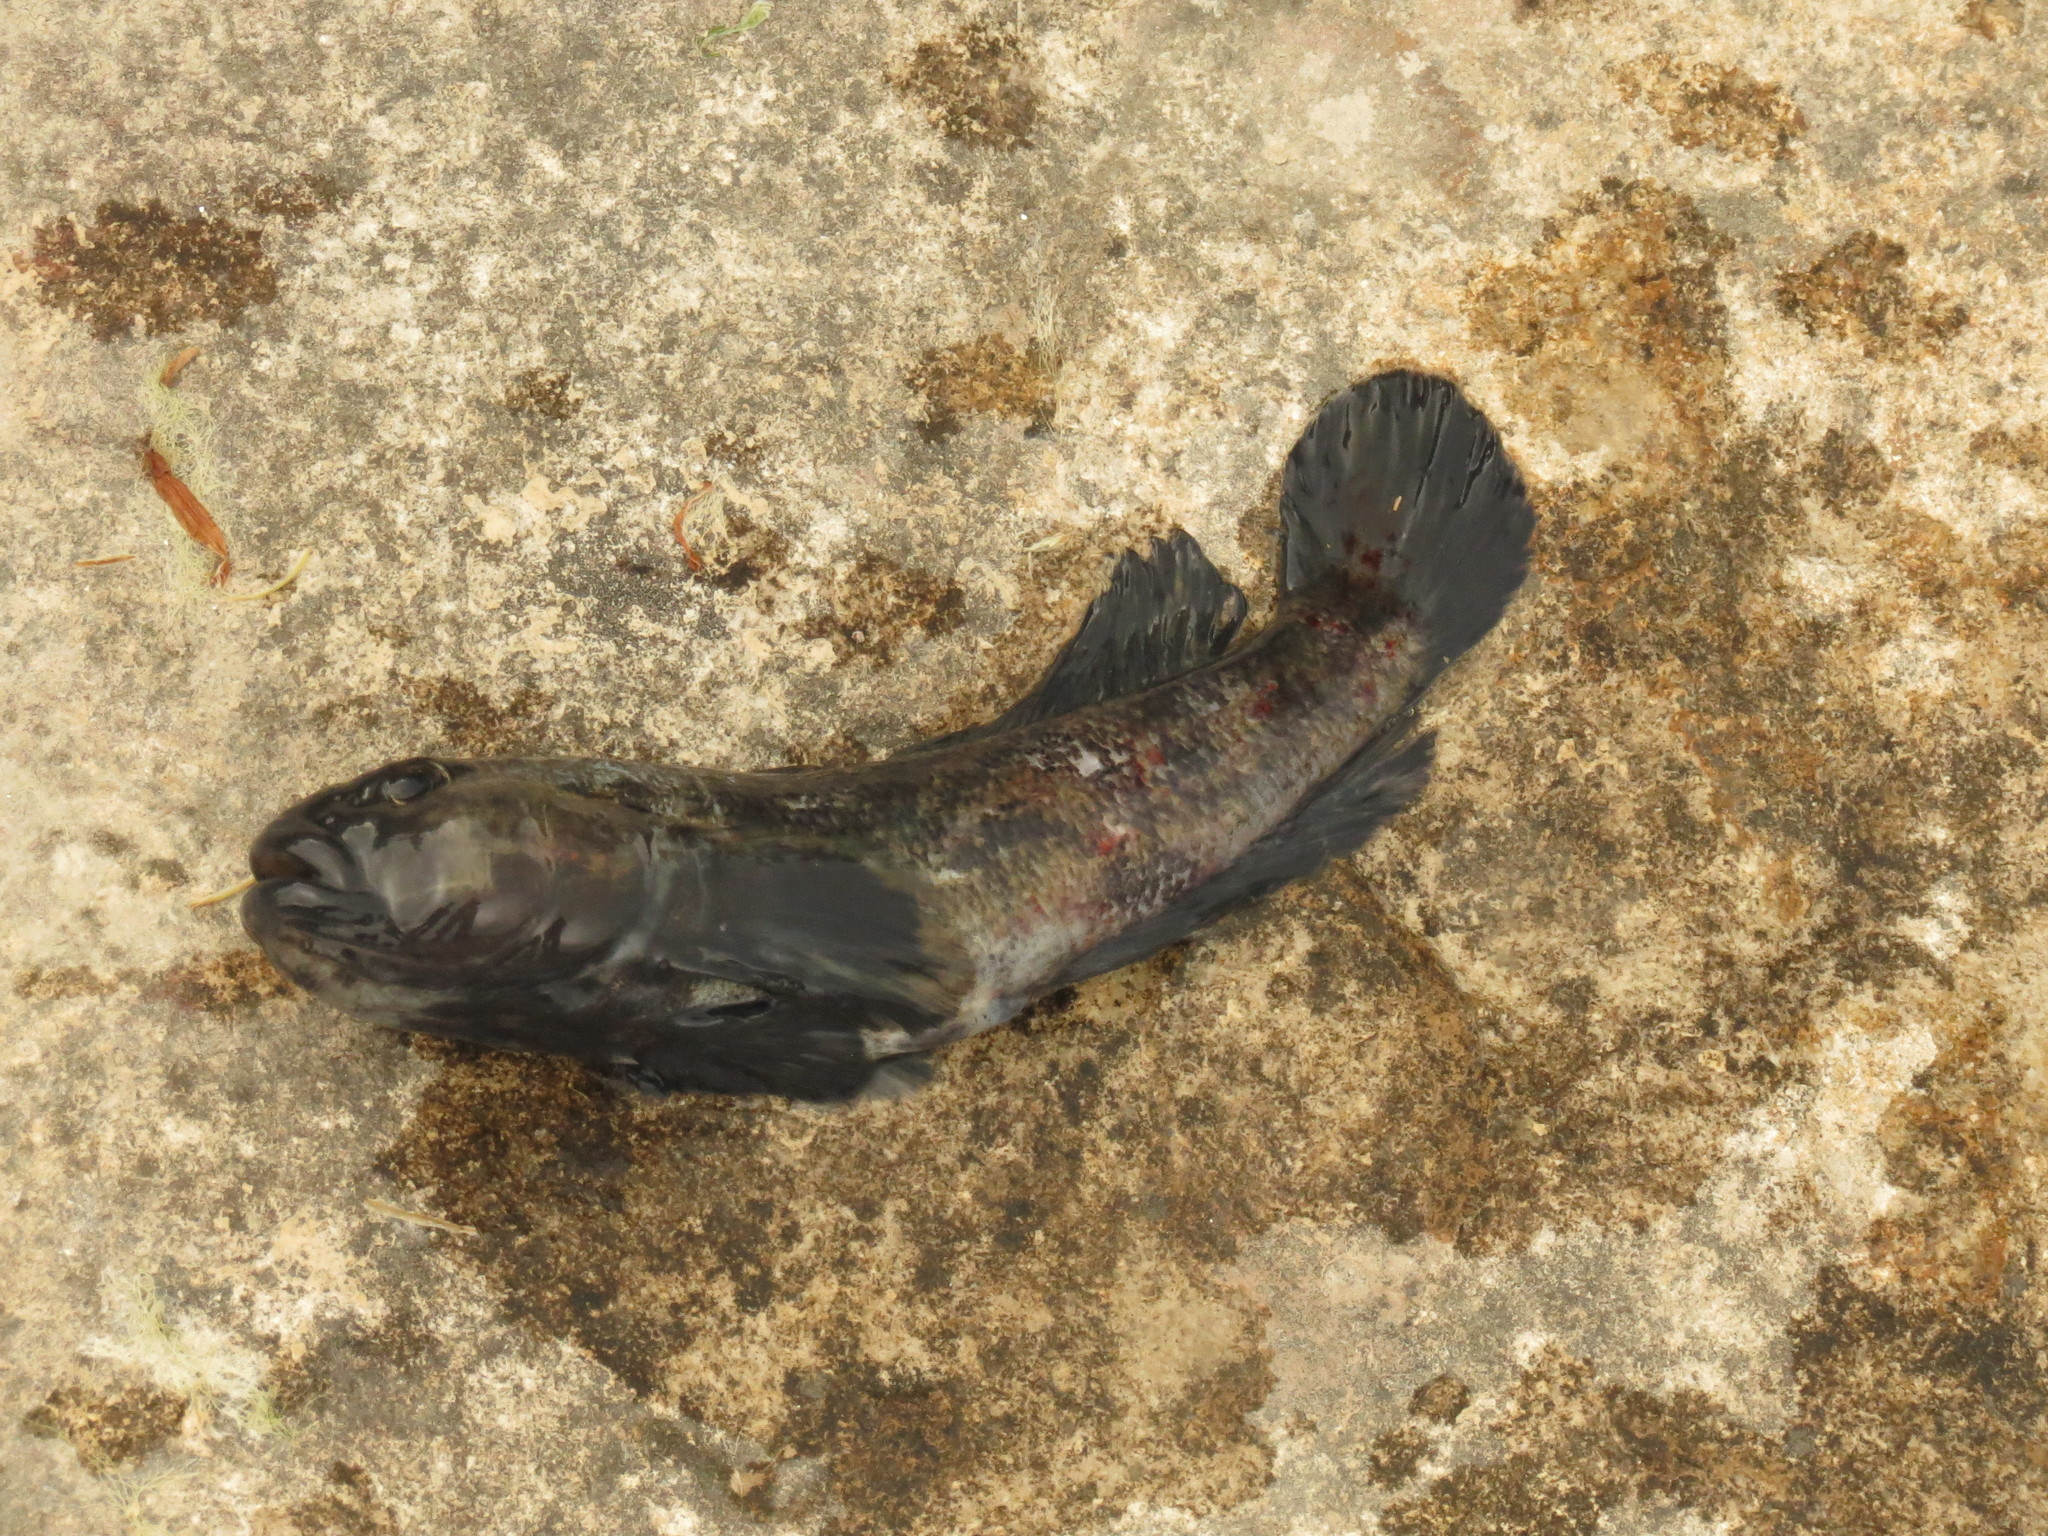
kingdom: Animalia
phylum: Chordata
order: Perciformes
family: Gobiidae
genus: Neogobius
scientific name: Neogobius melanostomus
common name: Round goby
